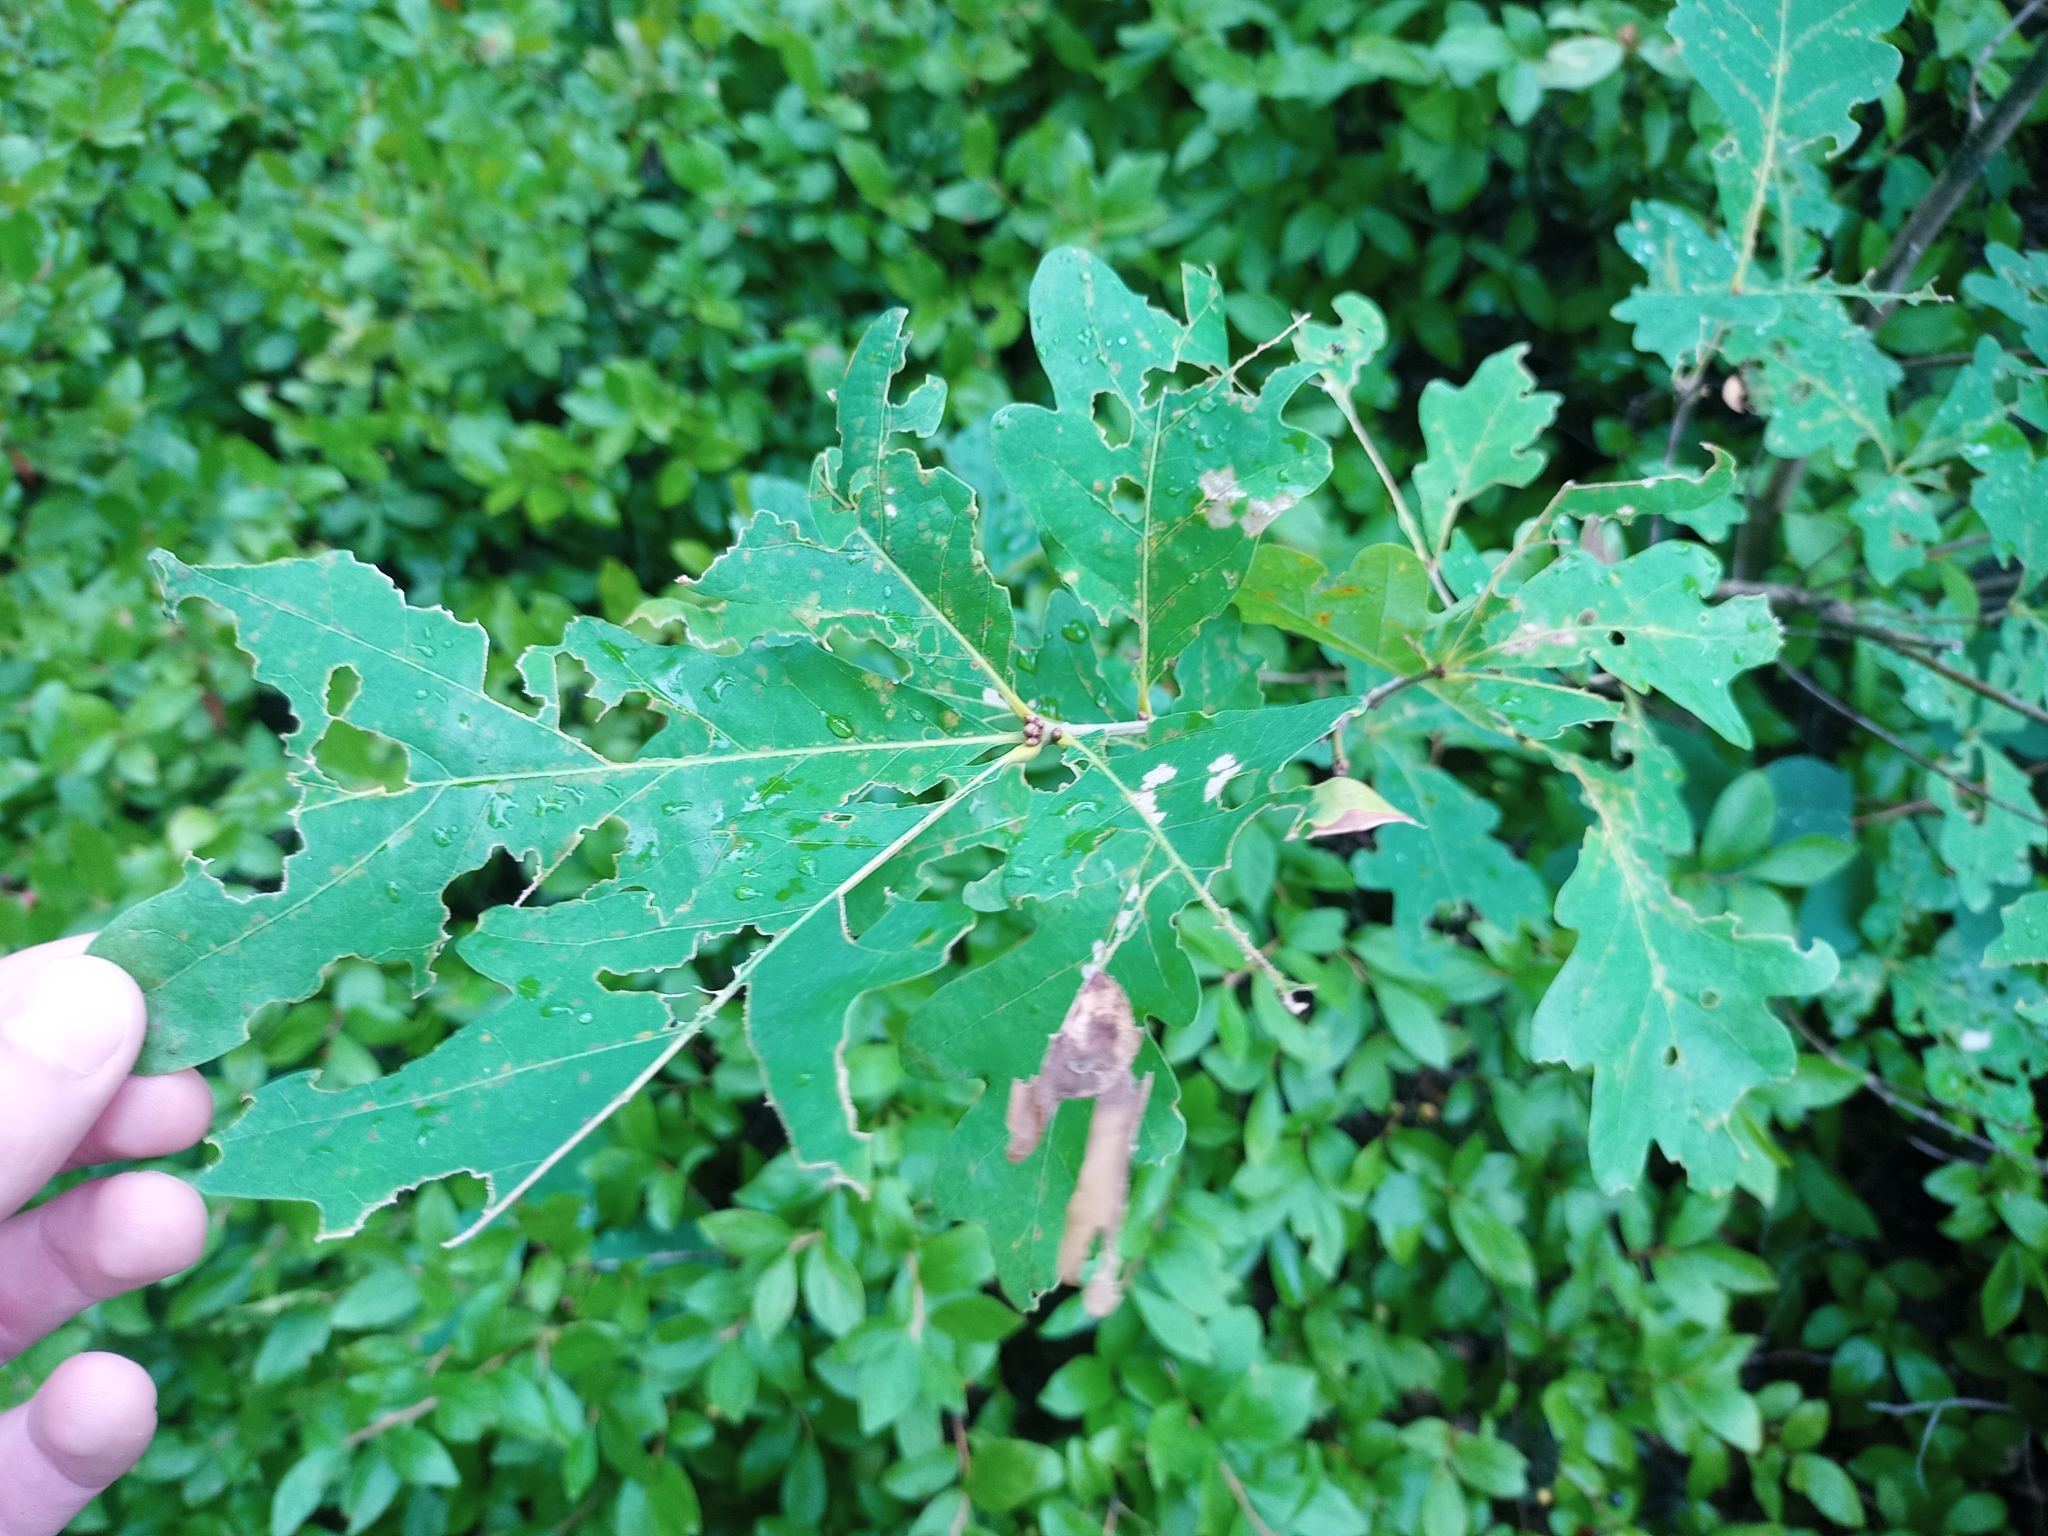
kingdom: Plantae
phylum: Tracheophyta
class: Magnoliopsida
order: Fagales
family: Fagaceae
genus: Quercus
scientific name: Quercus alba
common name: White oak
